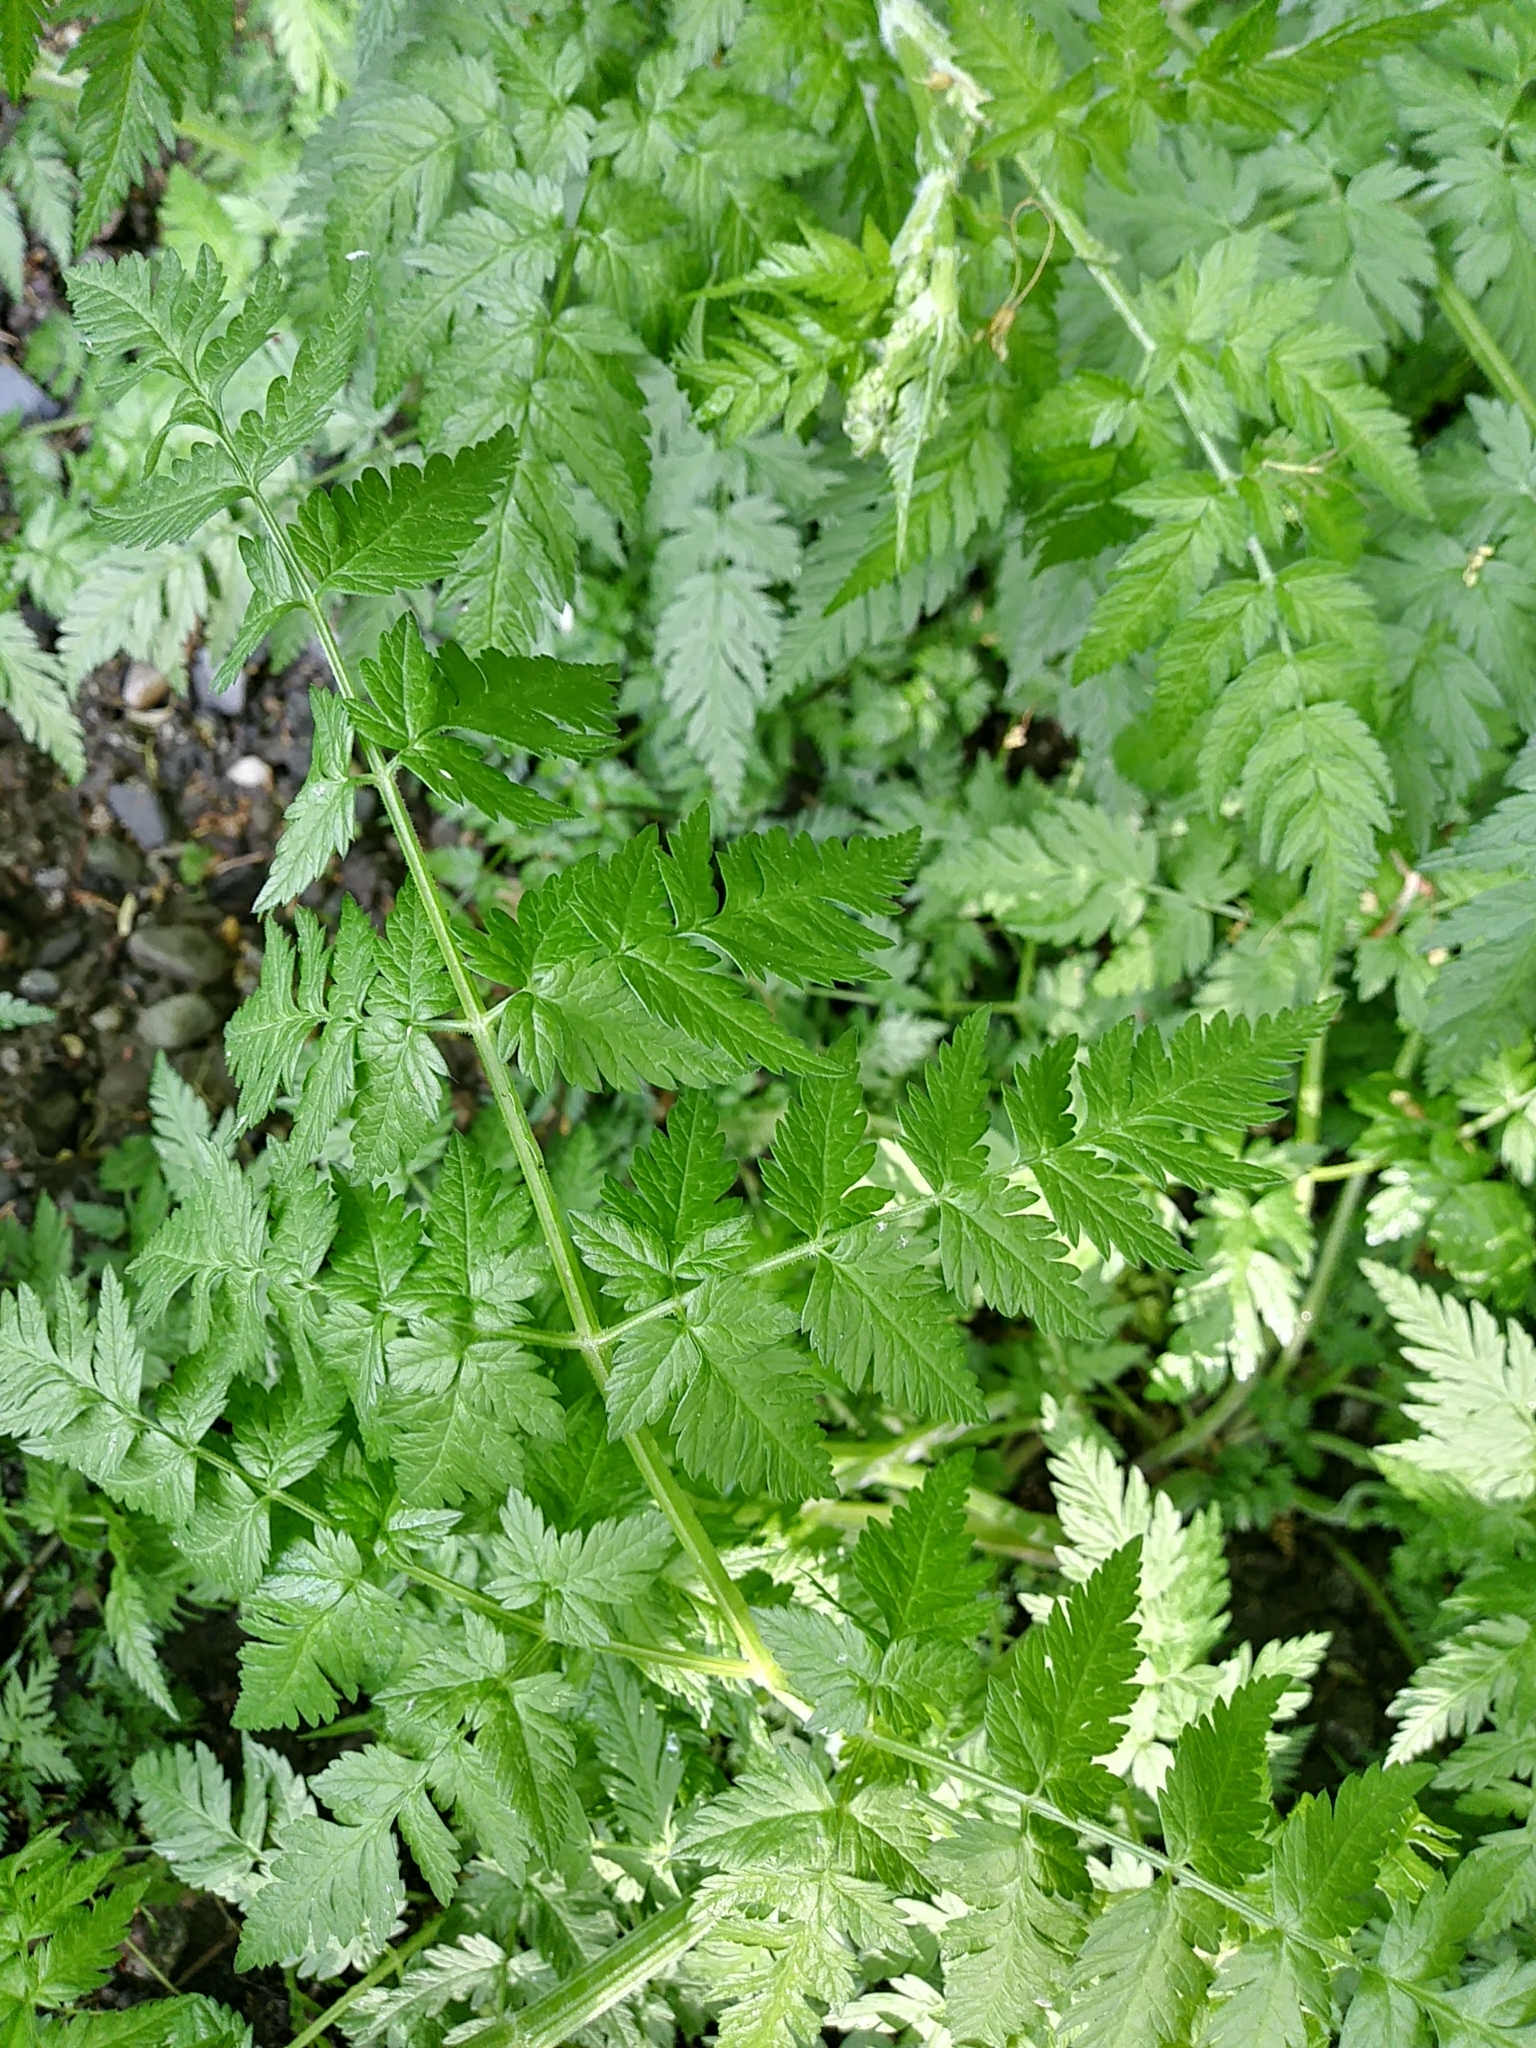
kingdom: Plantae
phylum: Tracheophyta
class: Magnoliopsida
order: Apiales
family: Apiaceae
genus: Anthriscus
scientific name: Anthriscus sylvestris
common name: Cow parsley
